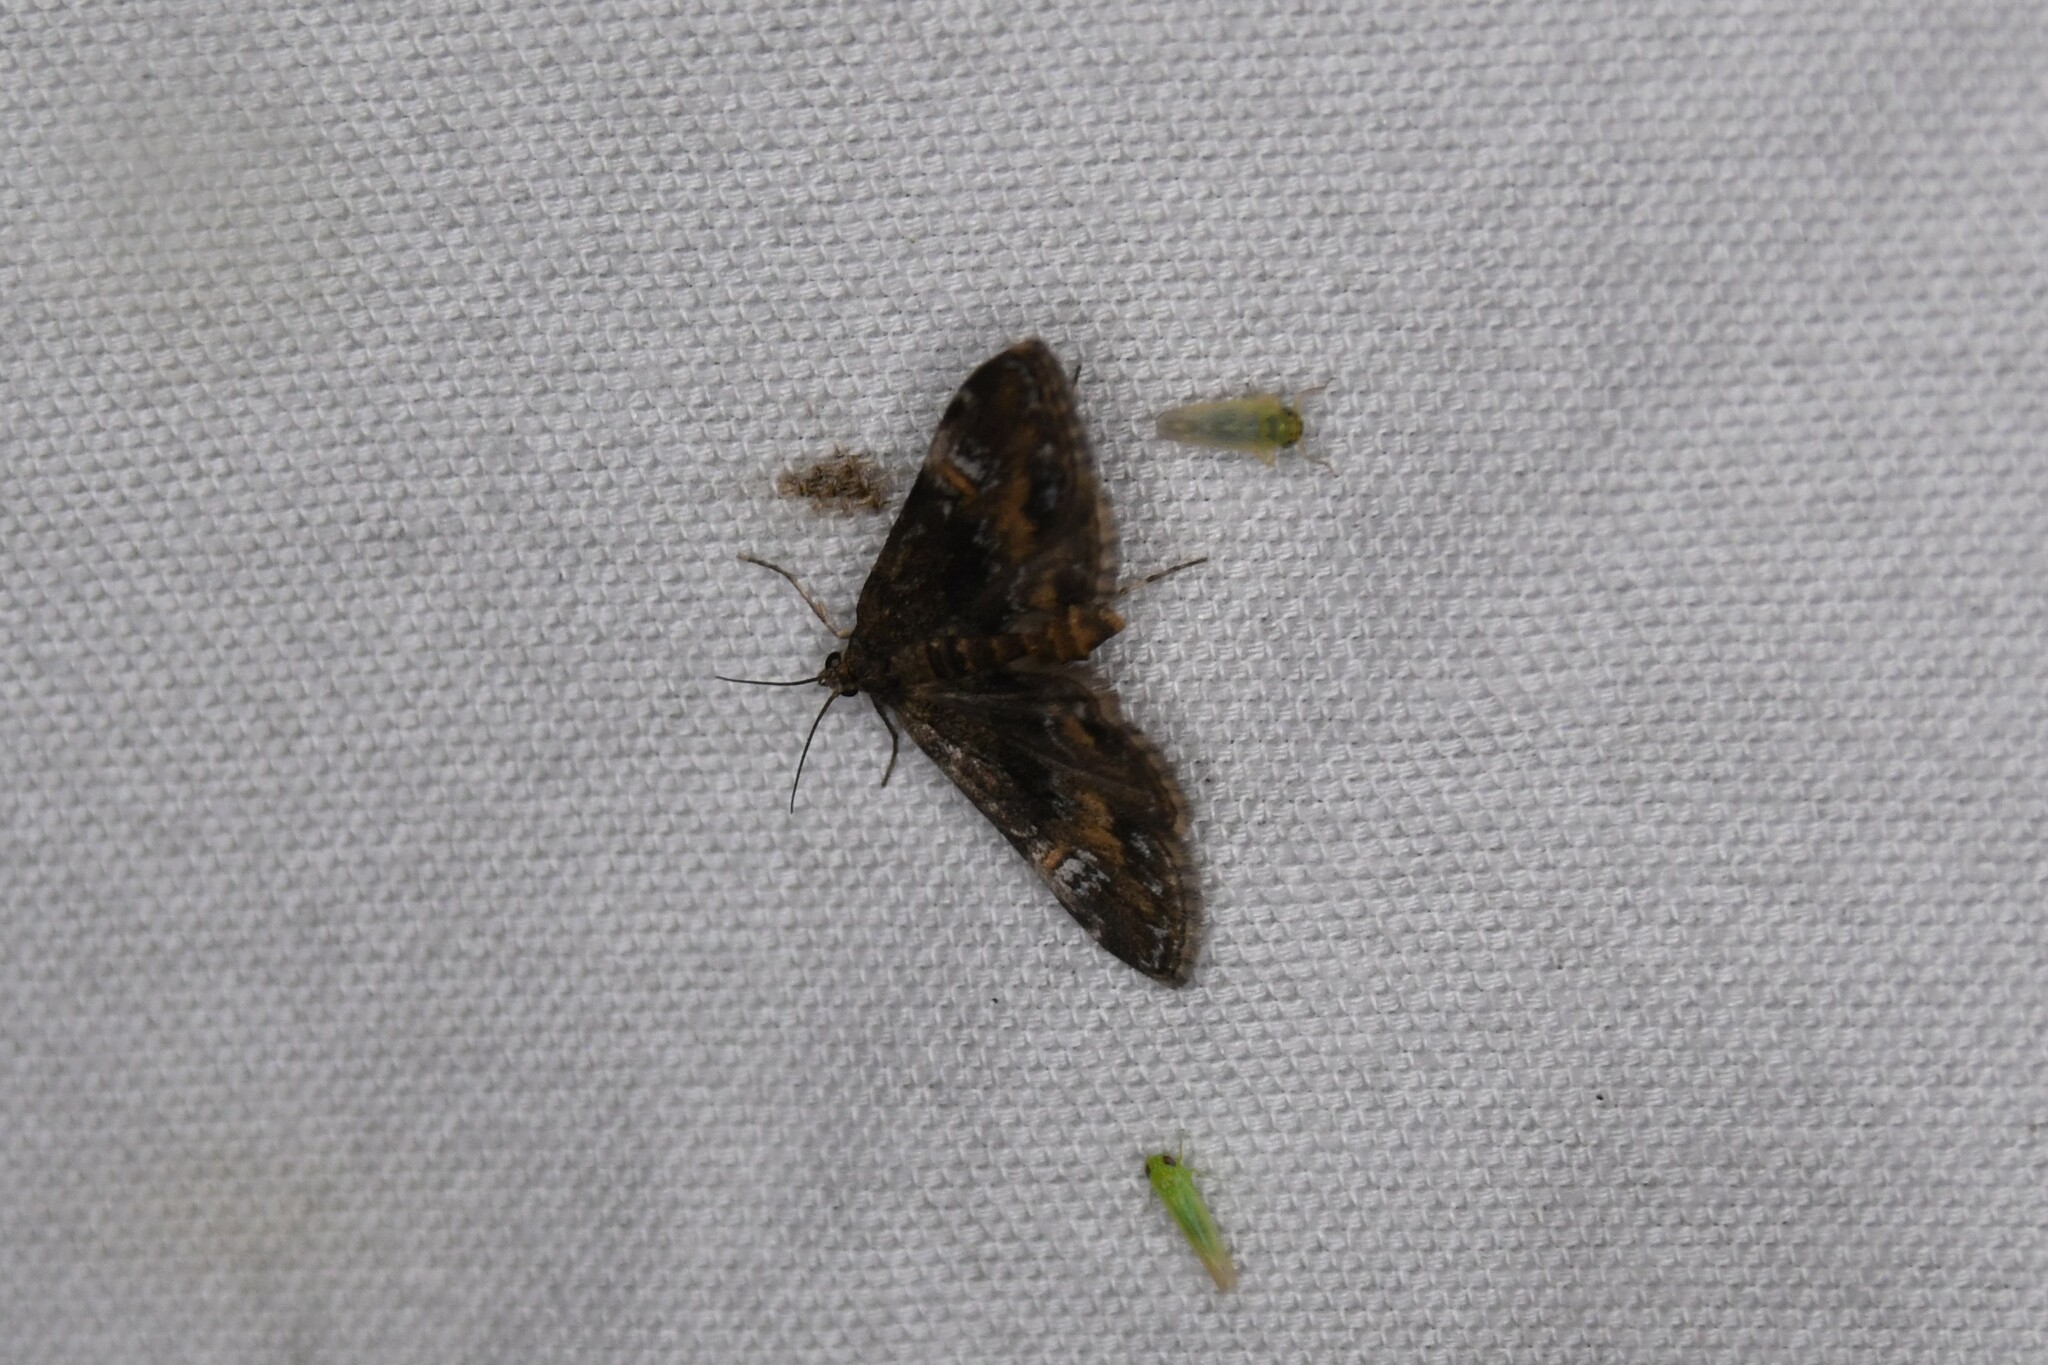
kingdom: Animalia
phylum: Arthropoda
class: Insecta
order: Lepidoptera
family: Crambidae
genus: Elophila
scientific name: Elophila obliteralis
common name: Waterlily leafcutter moth
